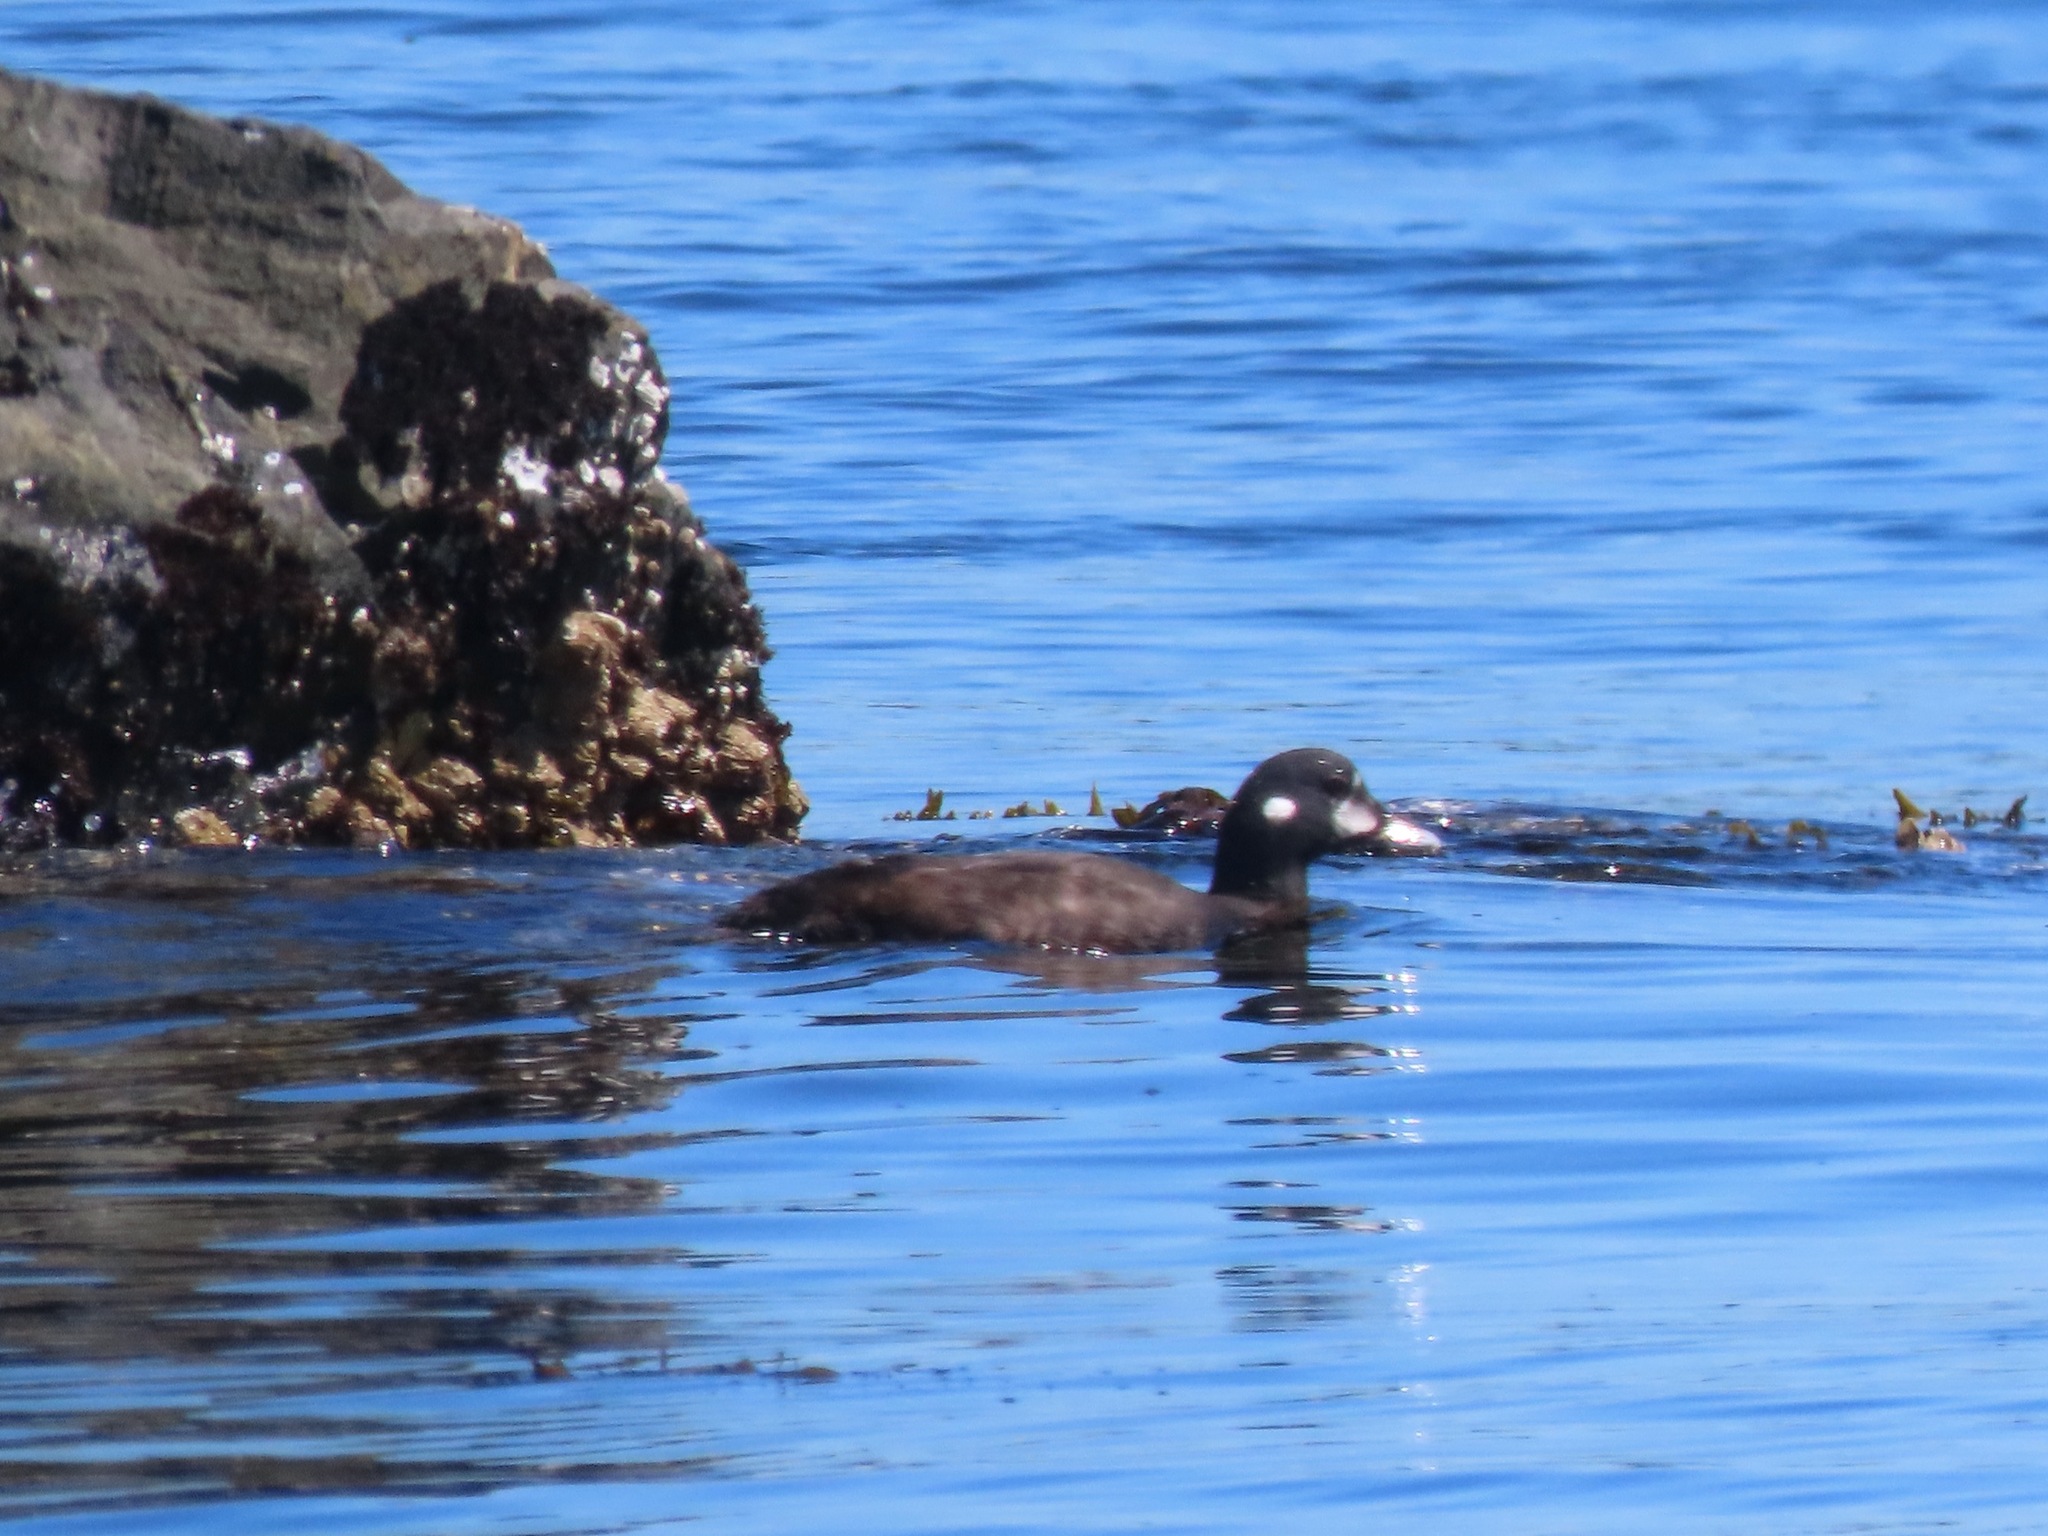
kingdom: Animalia
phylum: Chordata
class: Aves
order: Anseriformes
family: Anatidae
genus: Histrionicus
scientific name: Histrionicus histrionicus
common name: Harlequin duck
